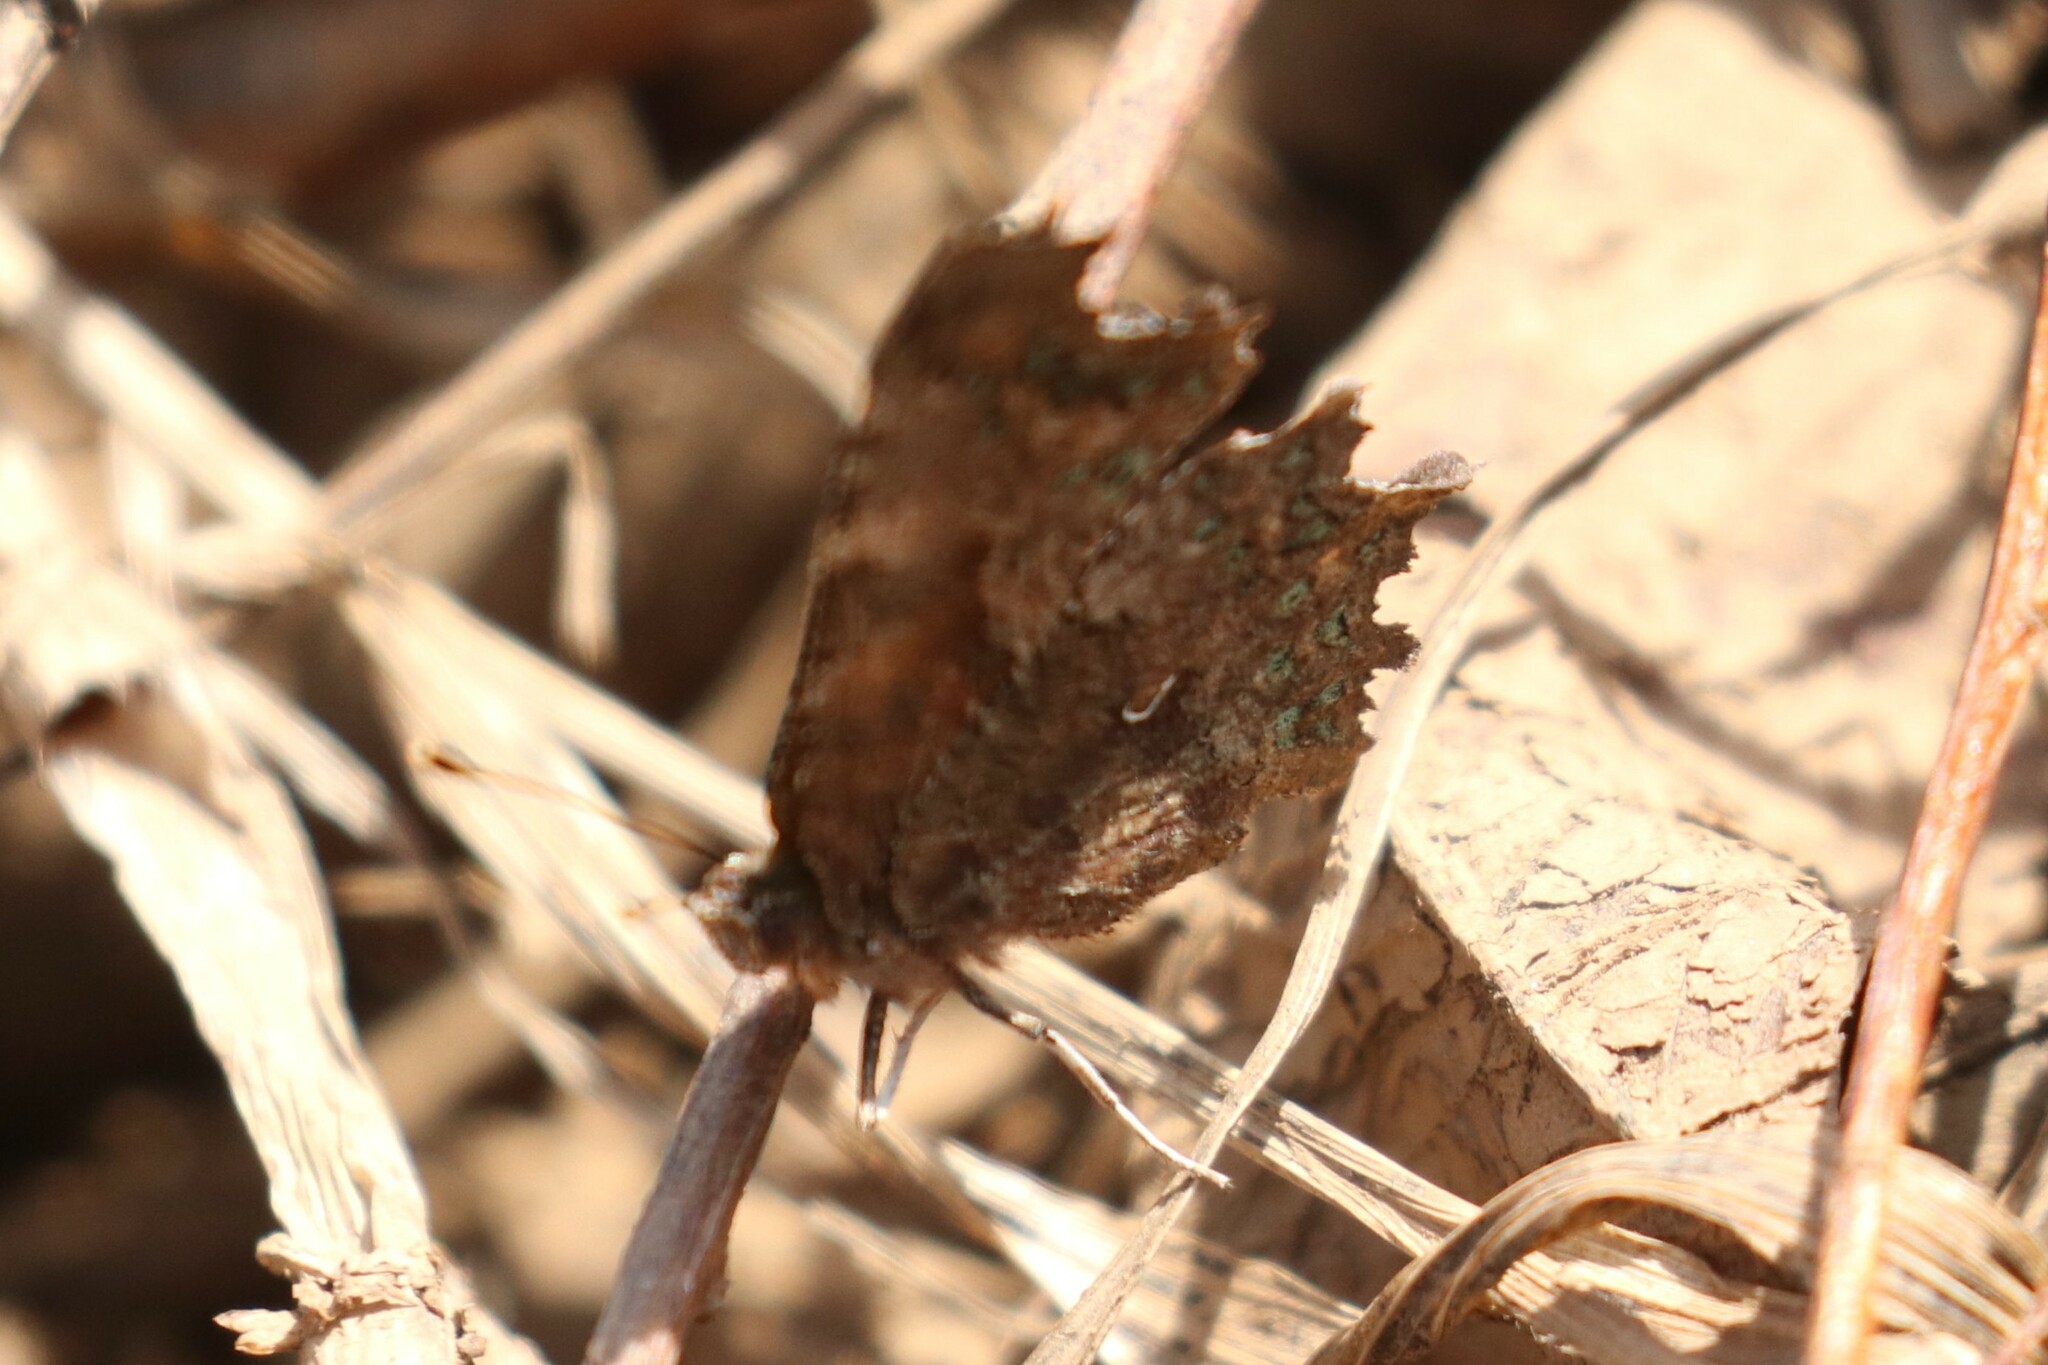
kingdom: Animalia
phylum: Arthropoda
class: Insecta
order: Lepidoptera
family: Nymphalidae
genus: Polygonia
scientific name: Polygonia c-album
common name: Comma
